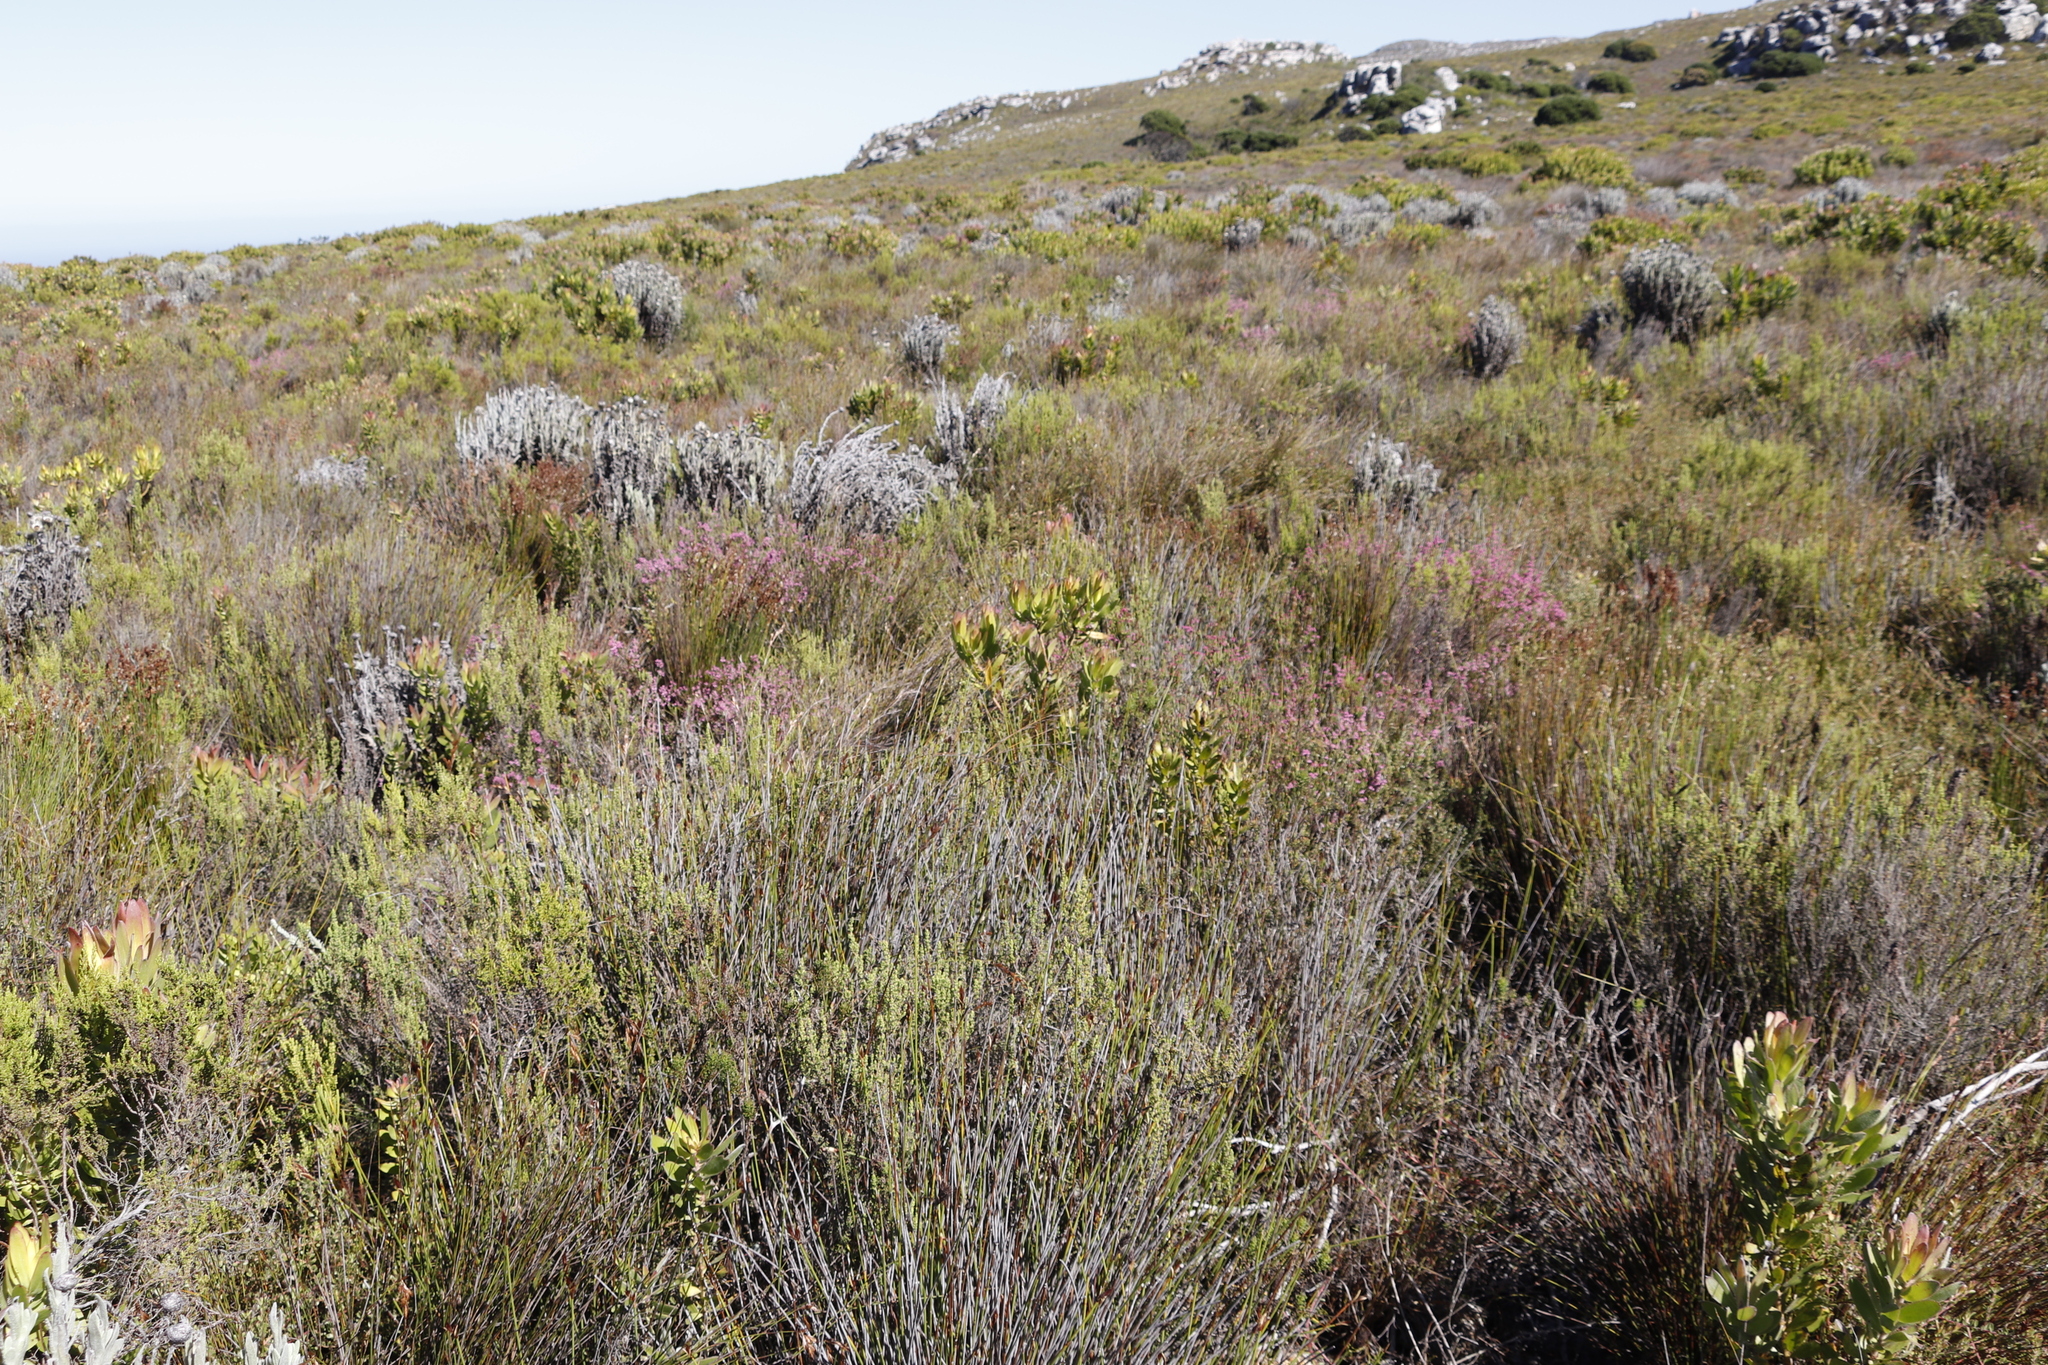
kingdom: Plantae
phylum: Tracheophyta
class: Magnoliopsida
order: Ericales
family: Ericaceae
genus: Erica
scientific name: Erica corifolia
